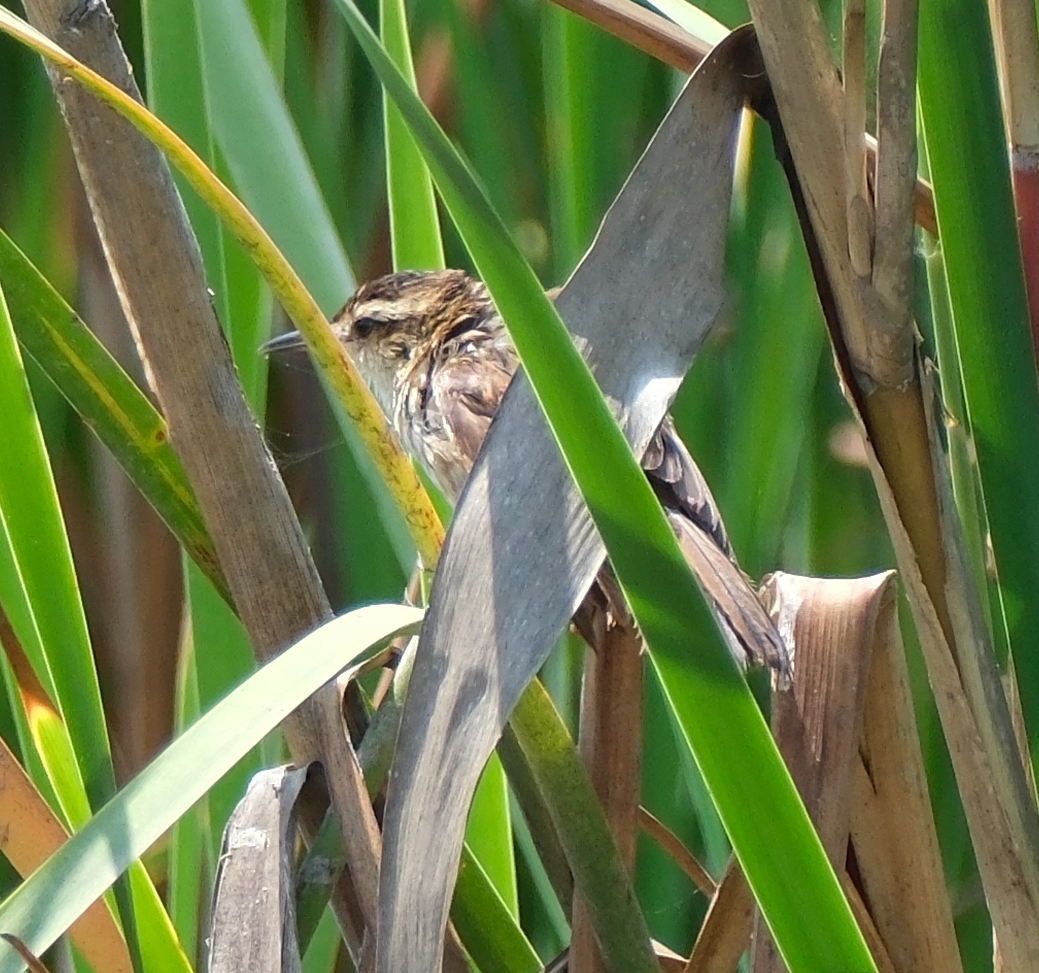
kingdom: Animalia
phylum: Chordata
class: Aves
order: Passeriformes
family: Furnariidae
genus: Phleocryptes
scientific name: Phleocryptes melanops
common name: Wren-like rushbird
